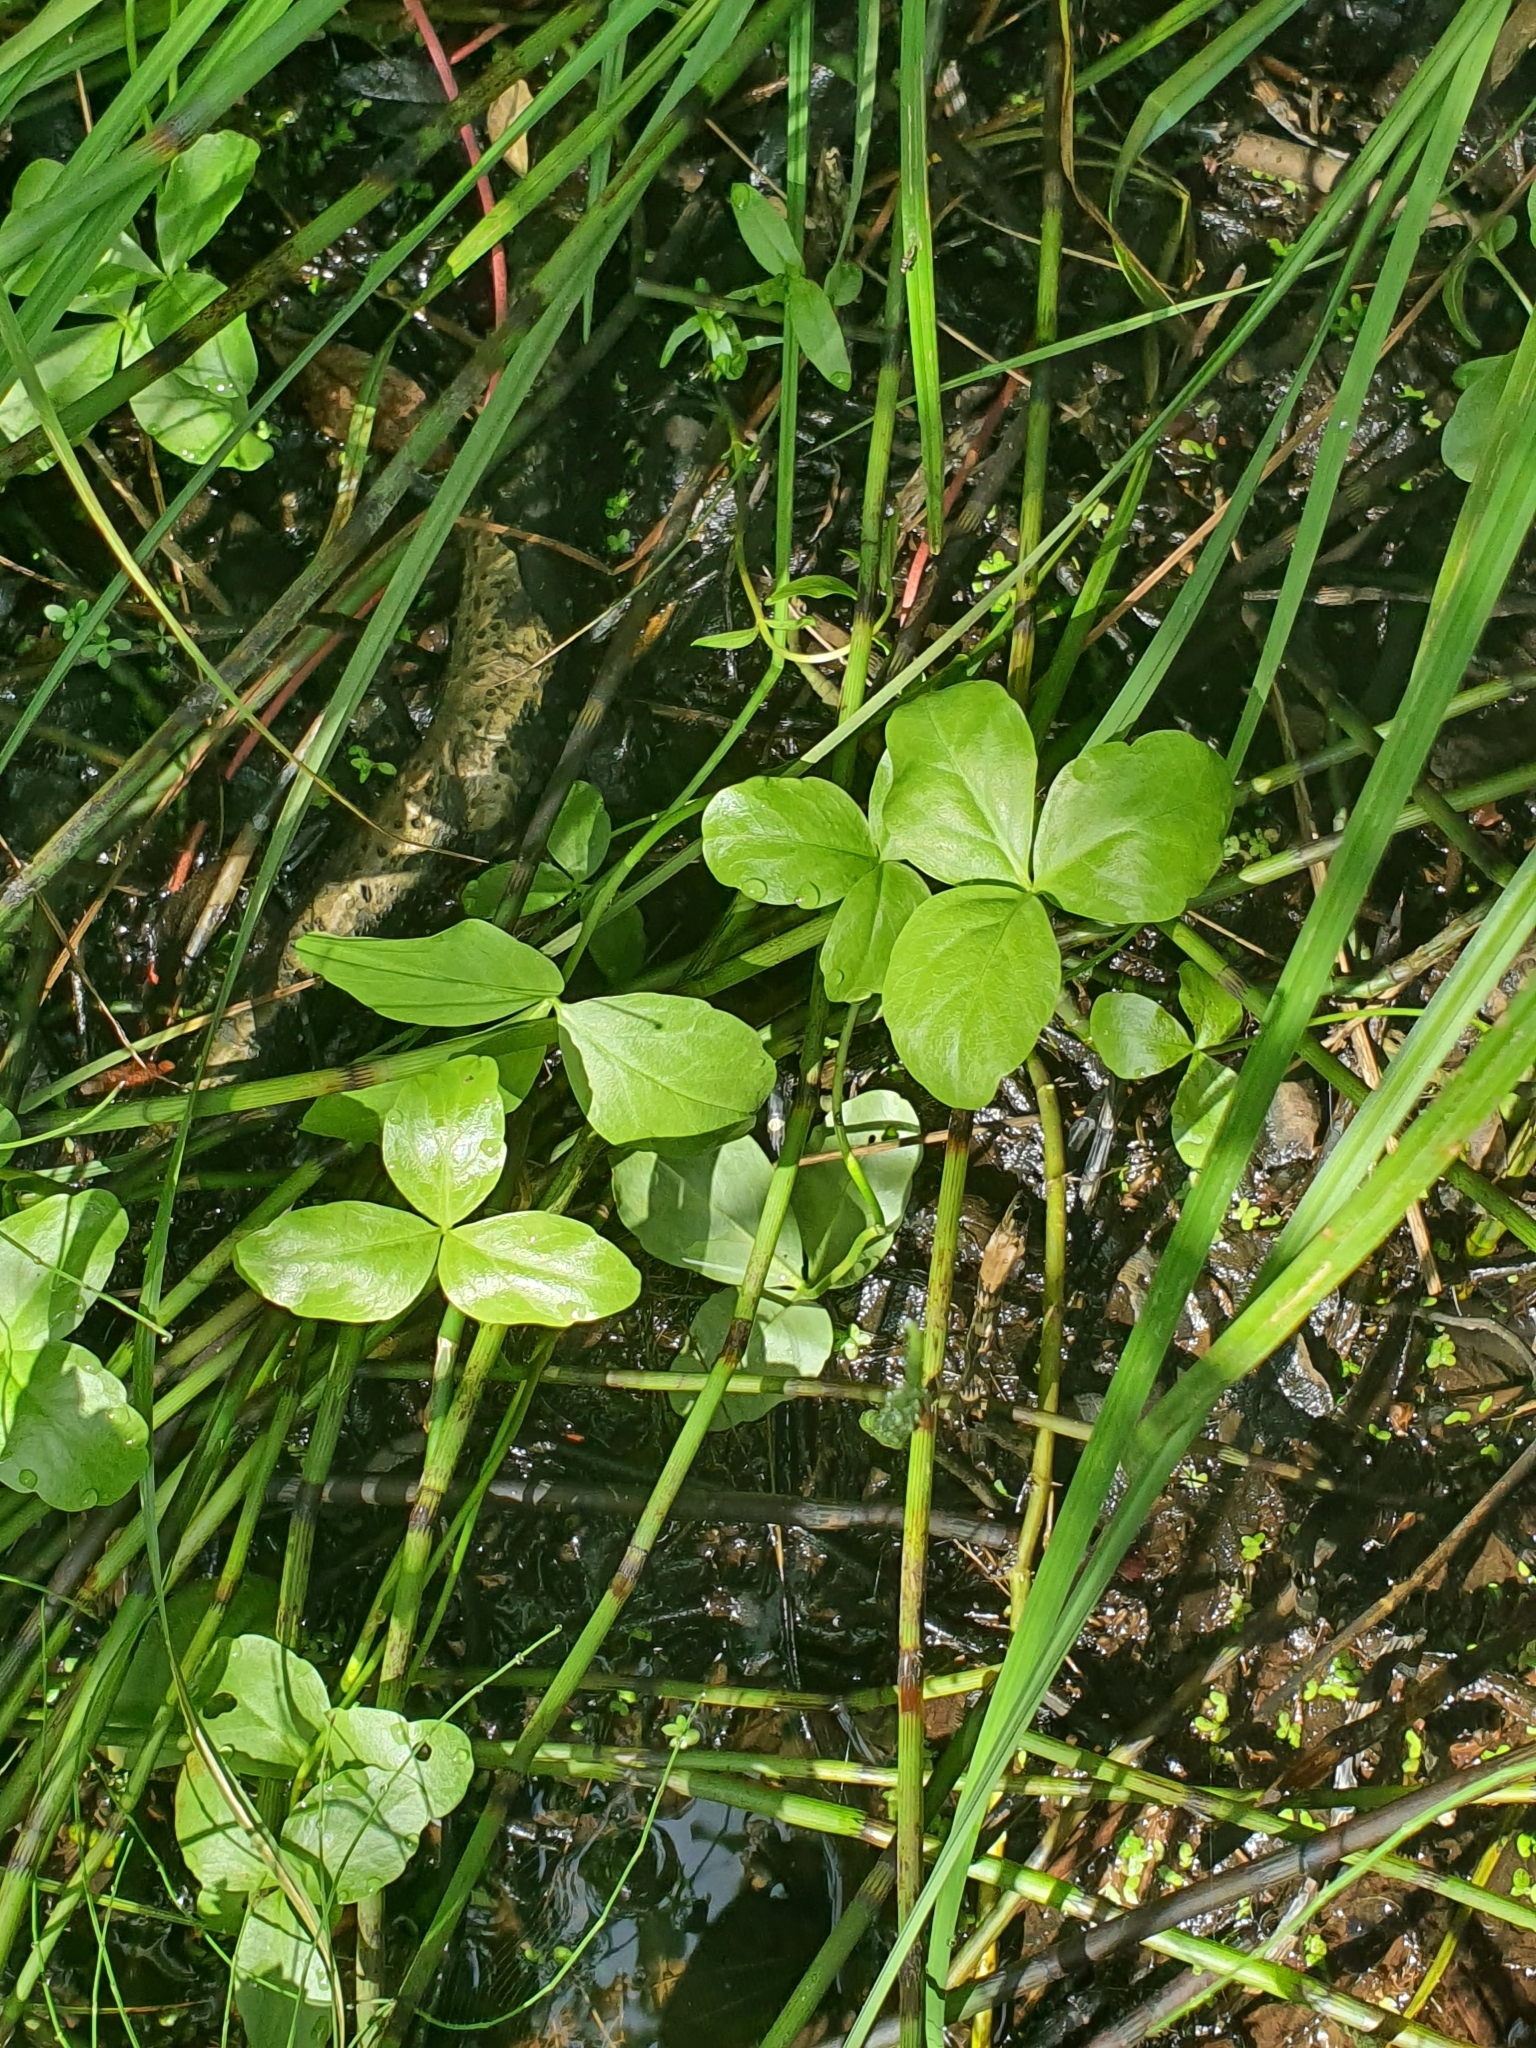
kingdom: Plantae
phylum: Tracheophyta
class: Magnoliopsida
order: Asterales
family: Menyanthaceae
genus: Menyanthes
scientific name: Menyanthes trifoliata
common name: Bogbean
